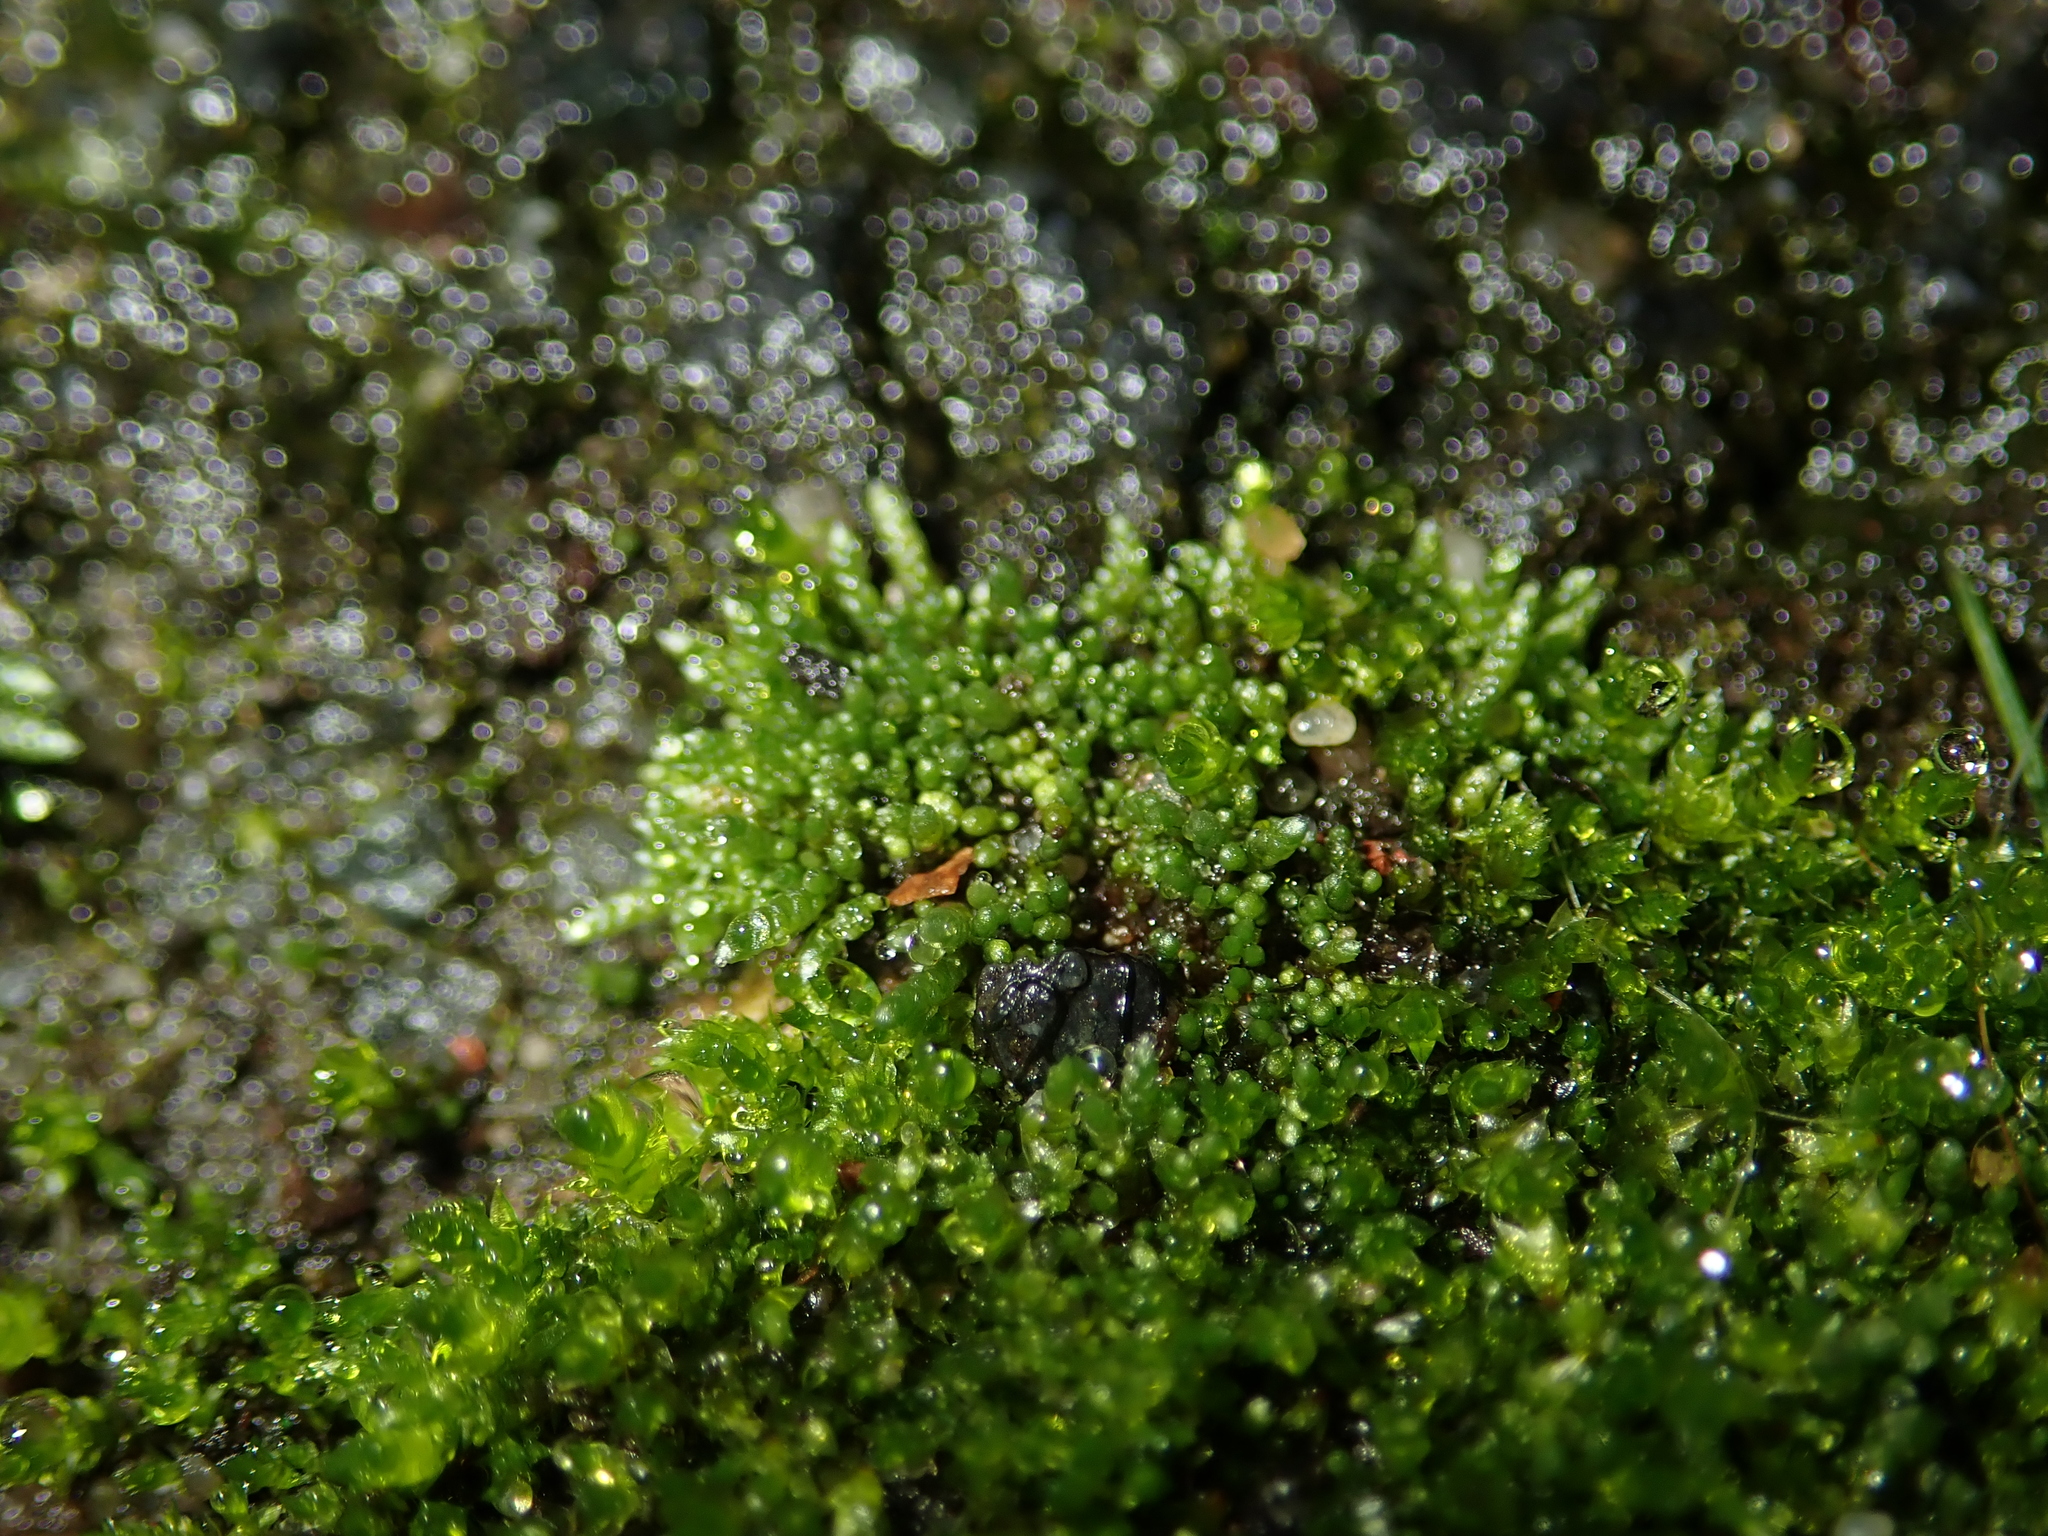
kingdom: Plantae
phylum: Bryophyta
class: Bryopsida
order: Bryales
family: Bryaceae
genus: Bryum
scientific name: Bryum argenteum
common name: Silver-moss
